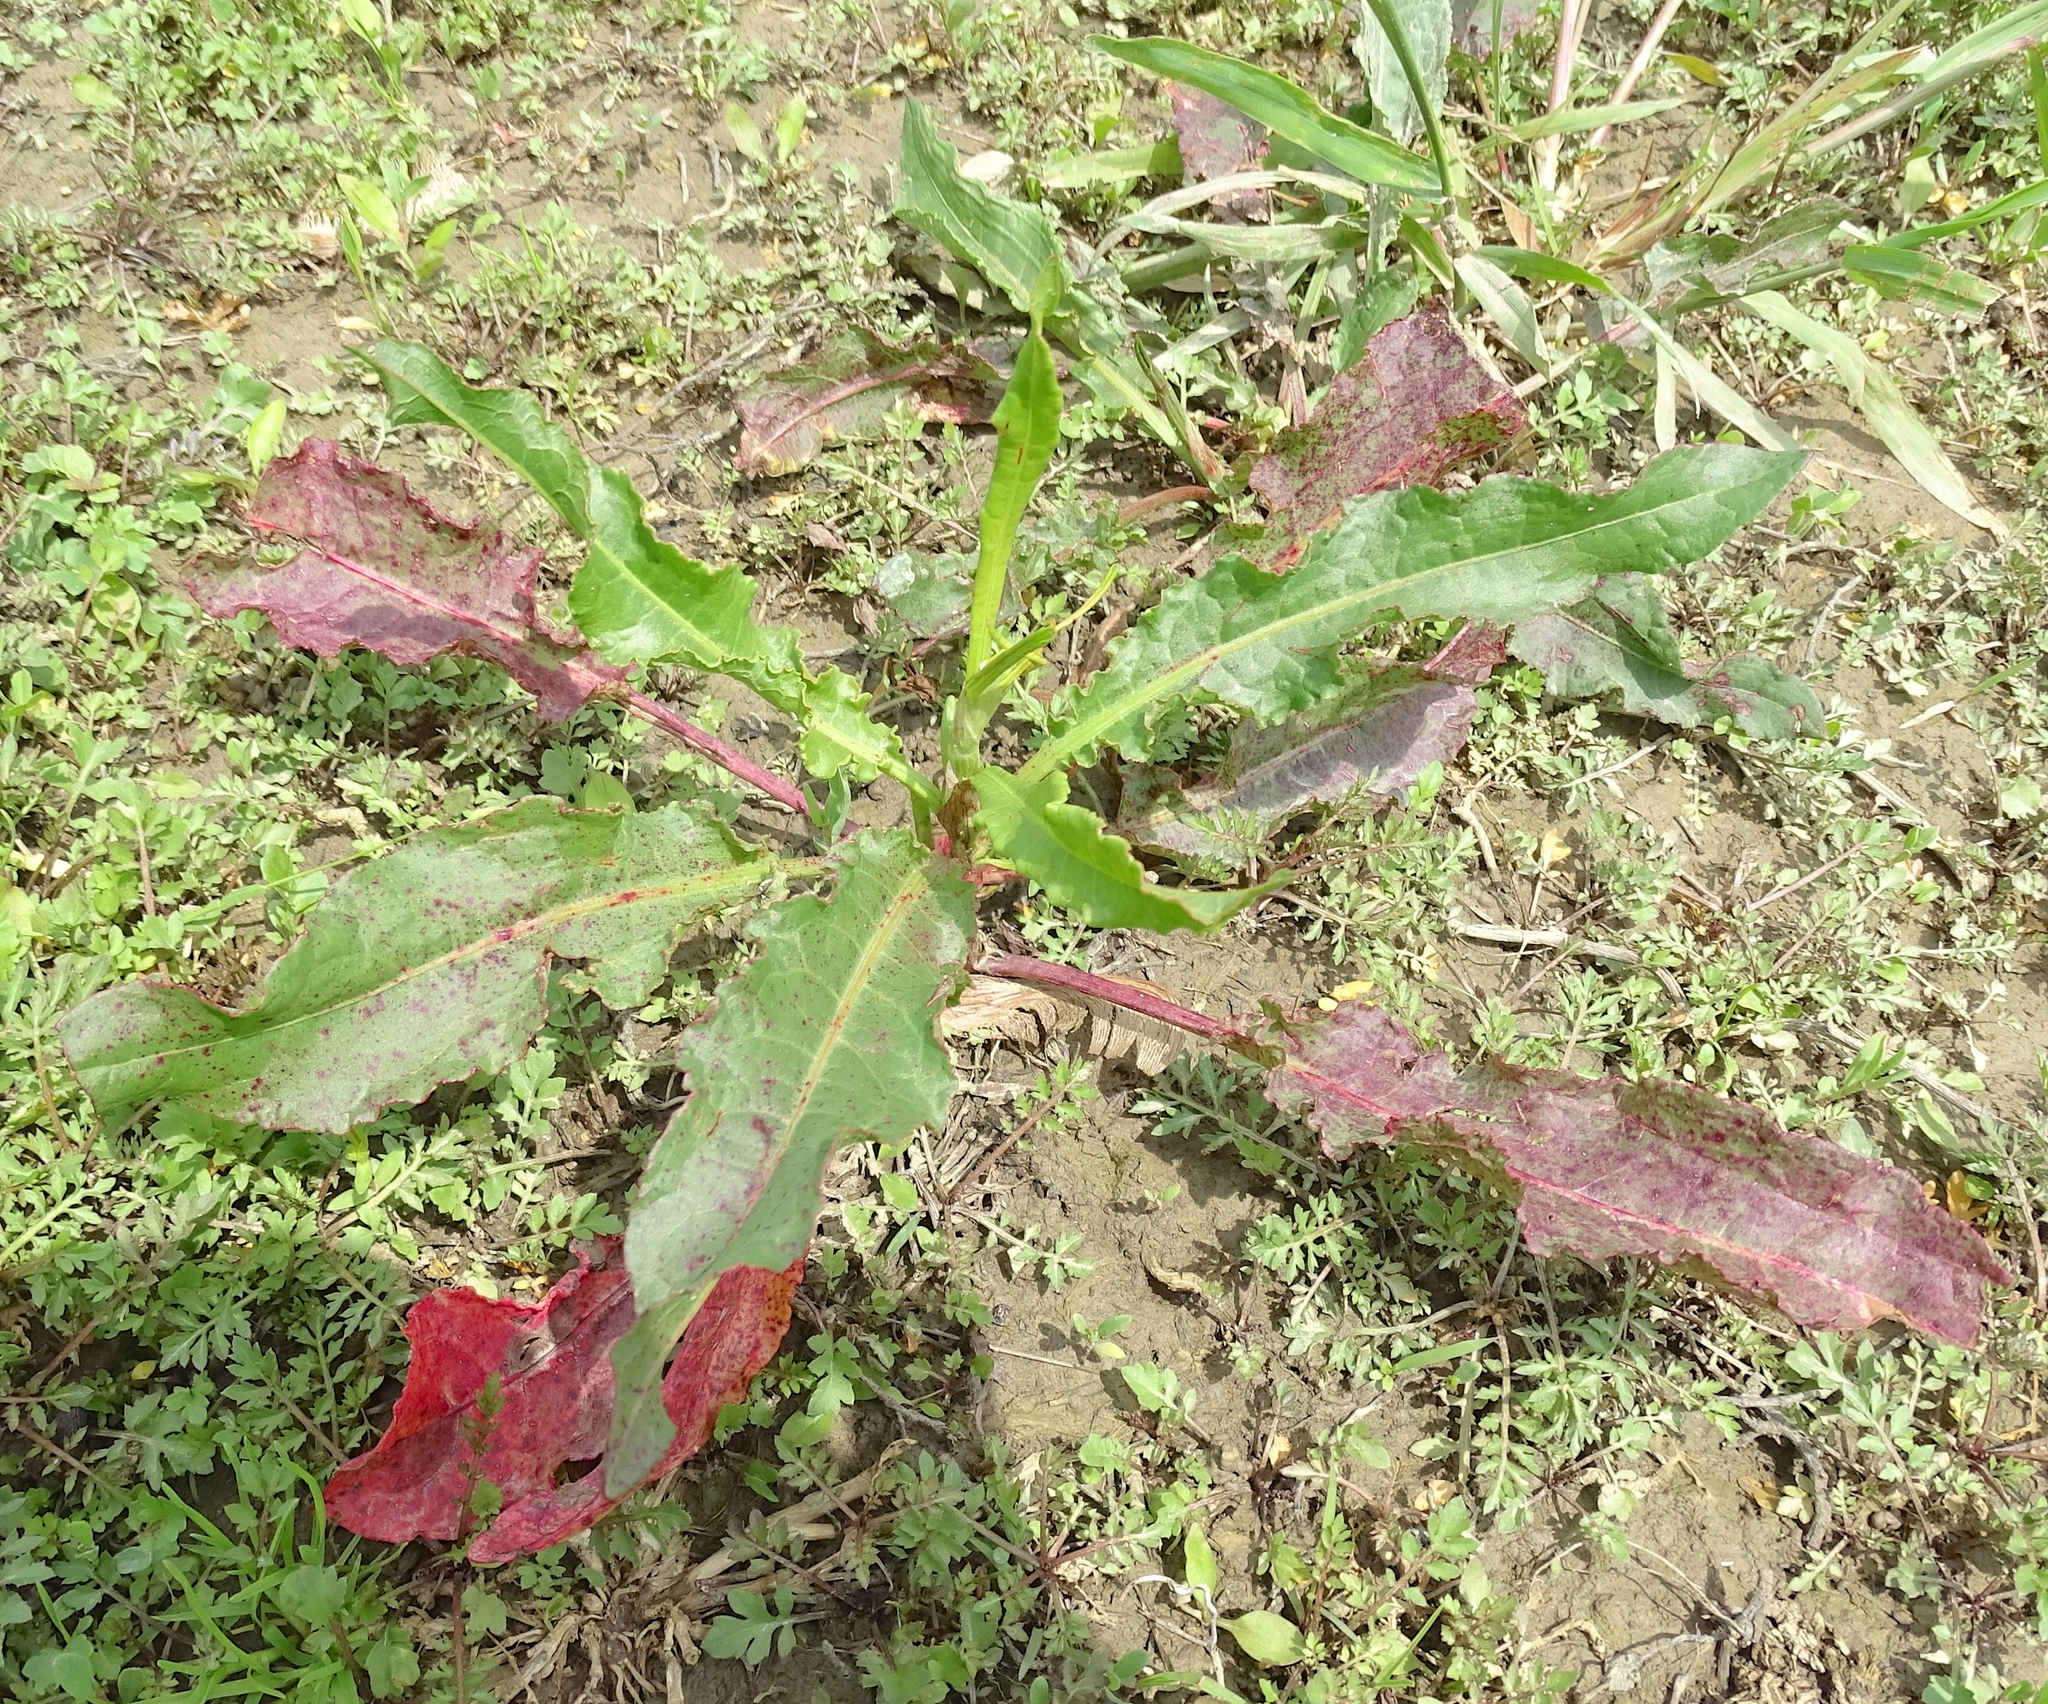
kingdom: Plantae
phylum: Tracheophyta
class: Magnoliopsida
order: Caryophyllales
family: Polygonaceae
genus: Rumex
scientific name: Rumex crispus
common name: Curled dock
